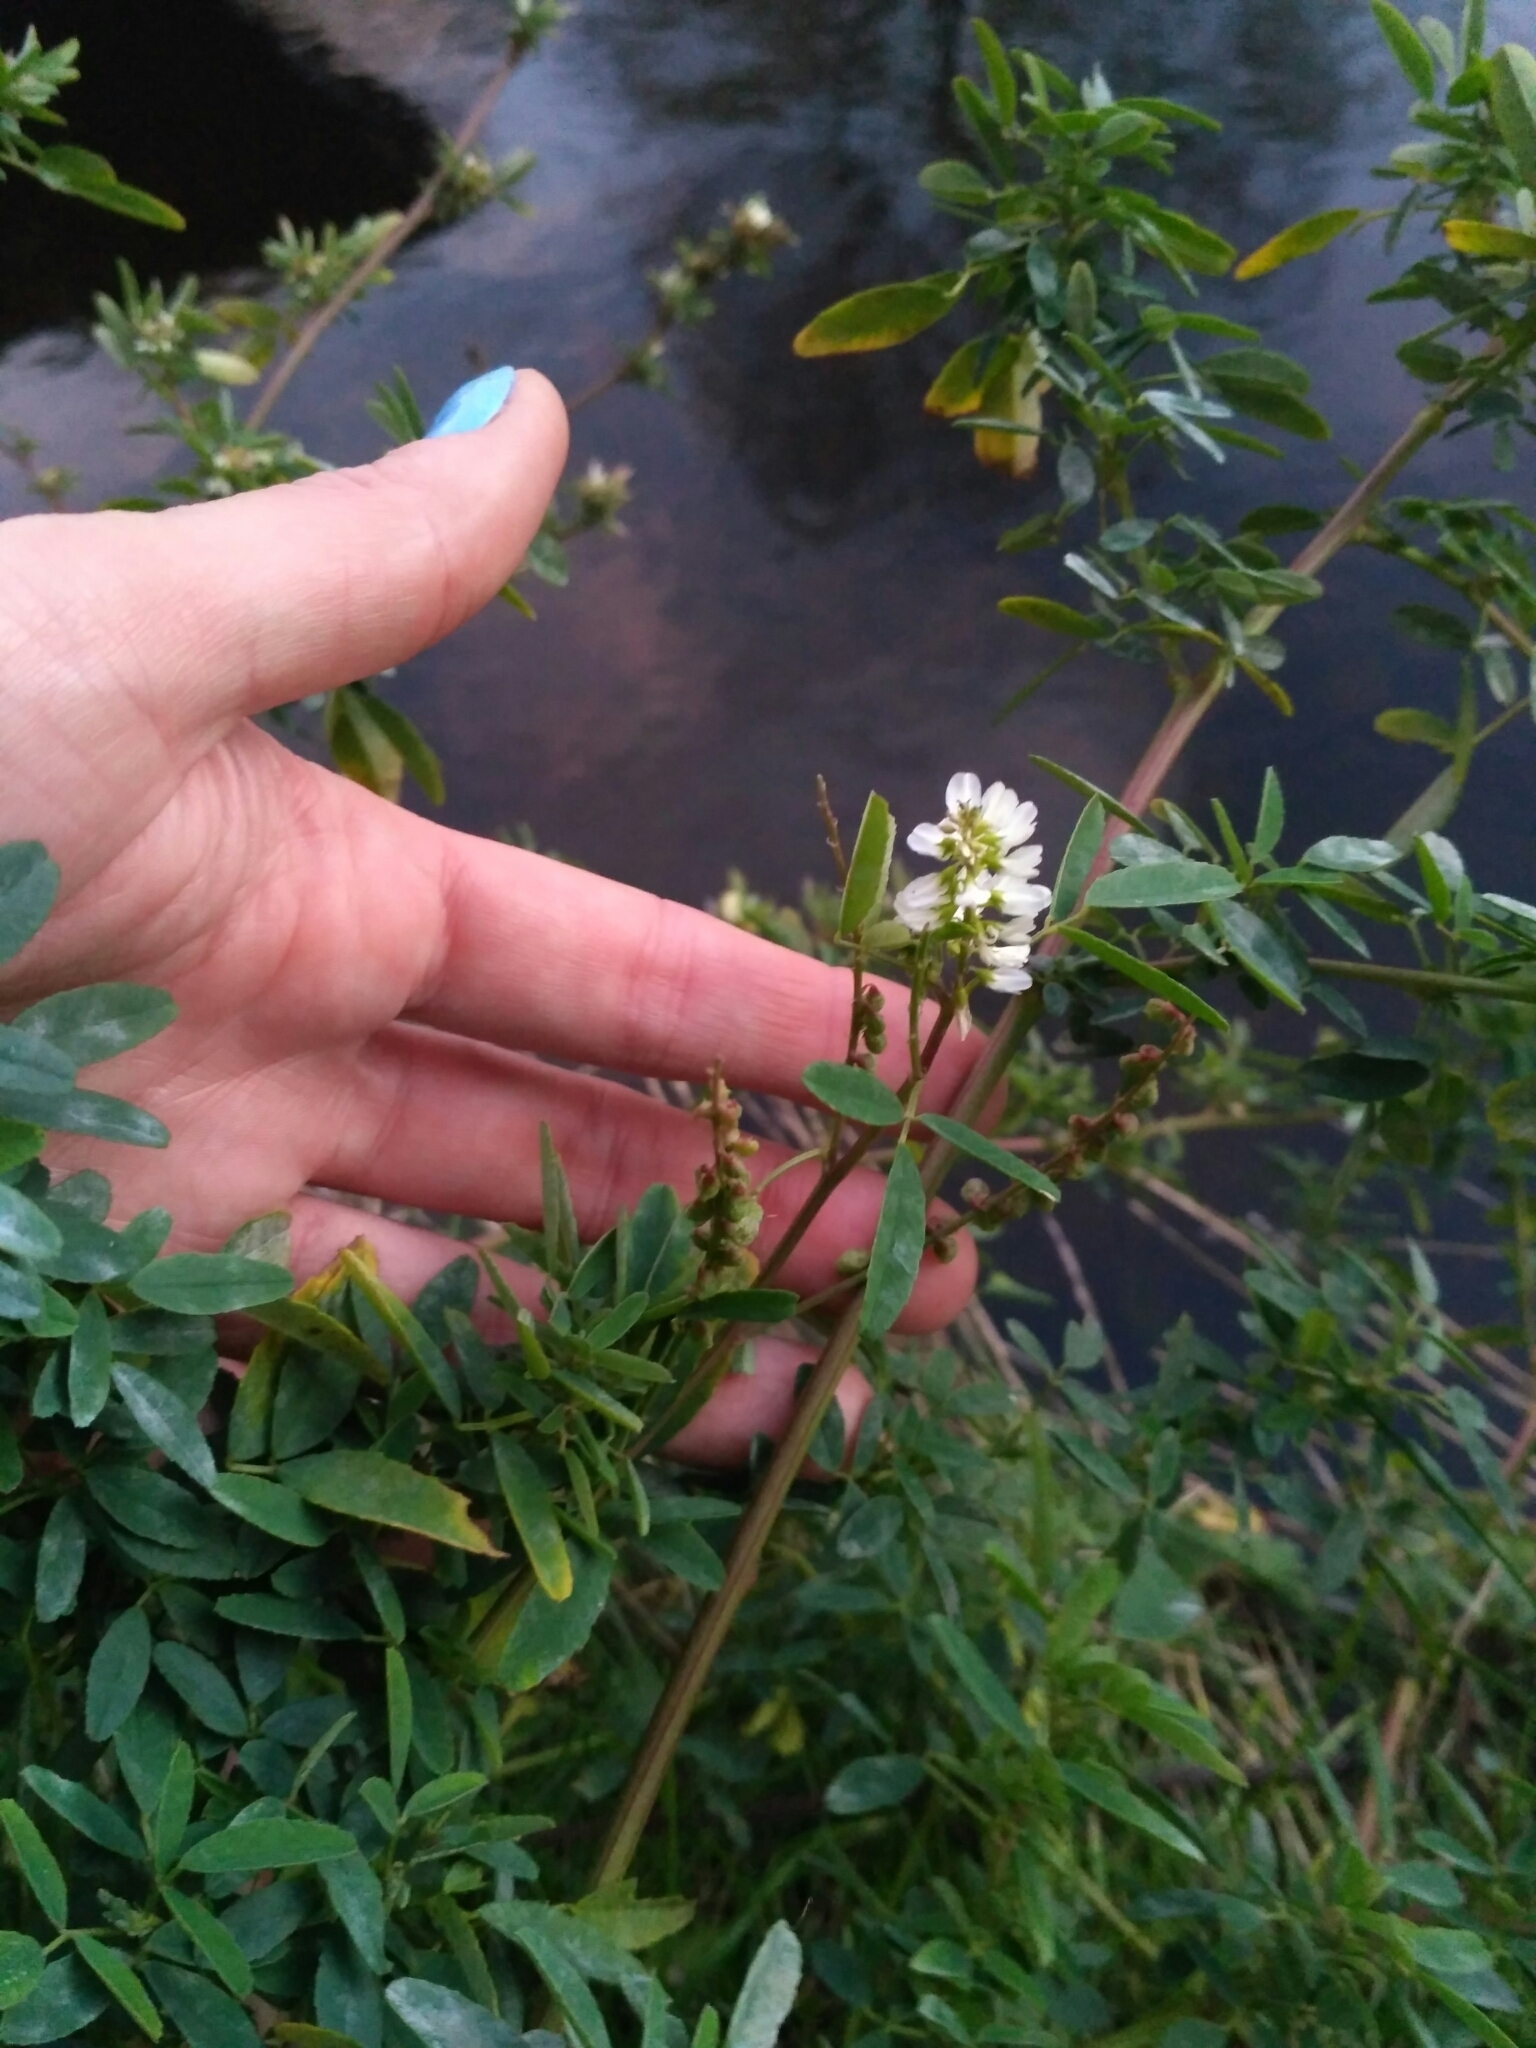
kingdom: Plantae
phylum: Tracheophyta
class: Magnoliopsida
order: Fabales
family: Fabaceae
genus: Melilotus
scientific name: Melilotus albus
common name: White melilot
